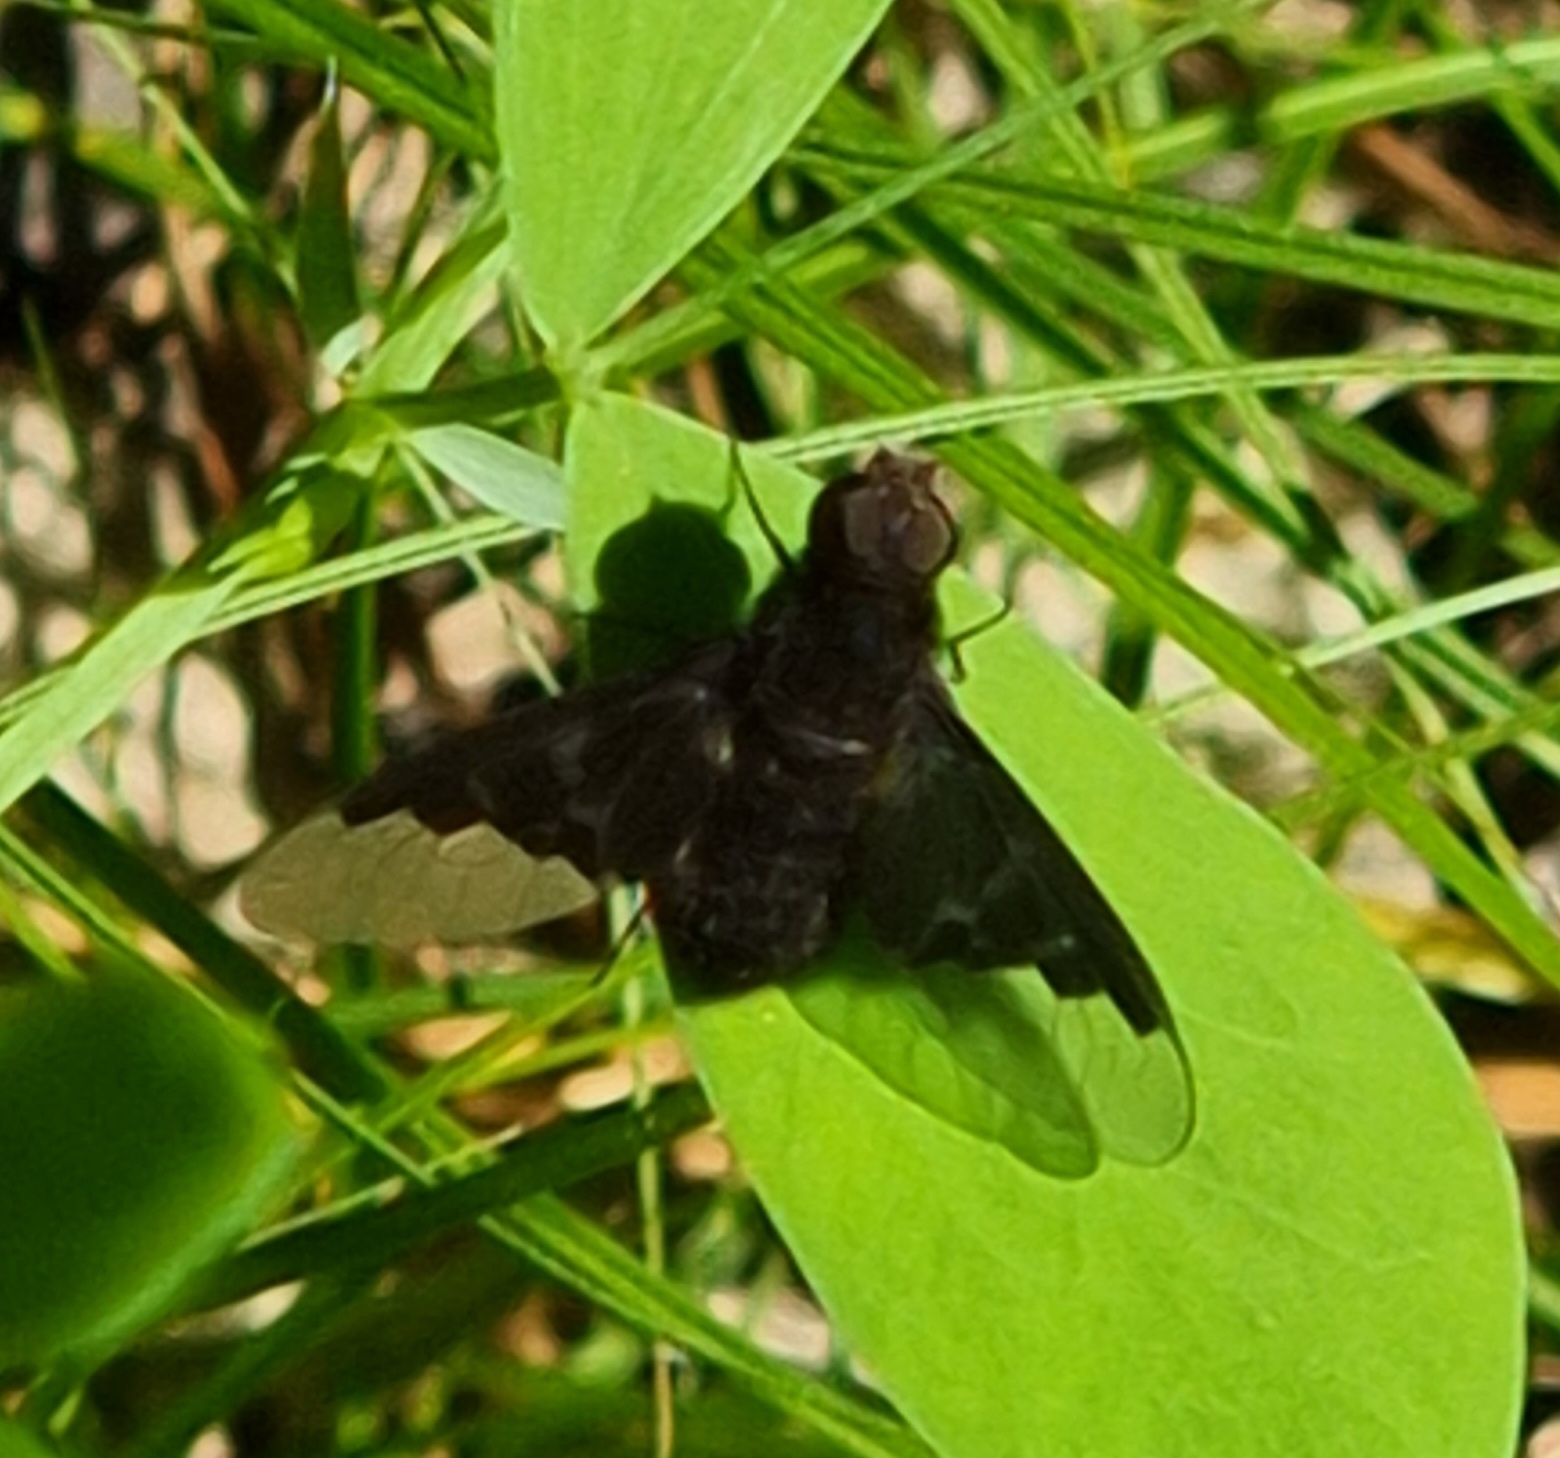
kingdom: Animalia
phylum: Arthropoda
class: Insecta
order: Diptera
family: Bombyliidae
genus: Hemipenthes
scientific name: Hemipenthes morio
